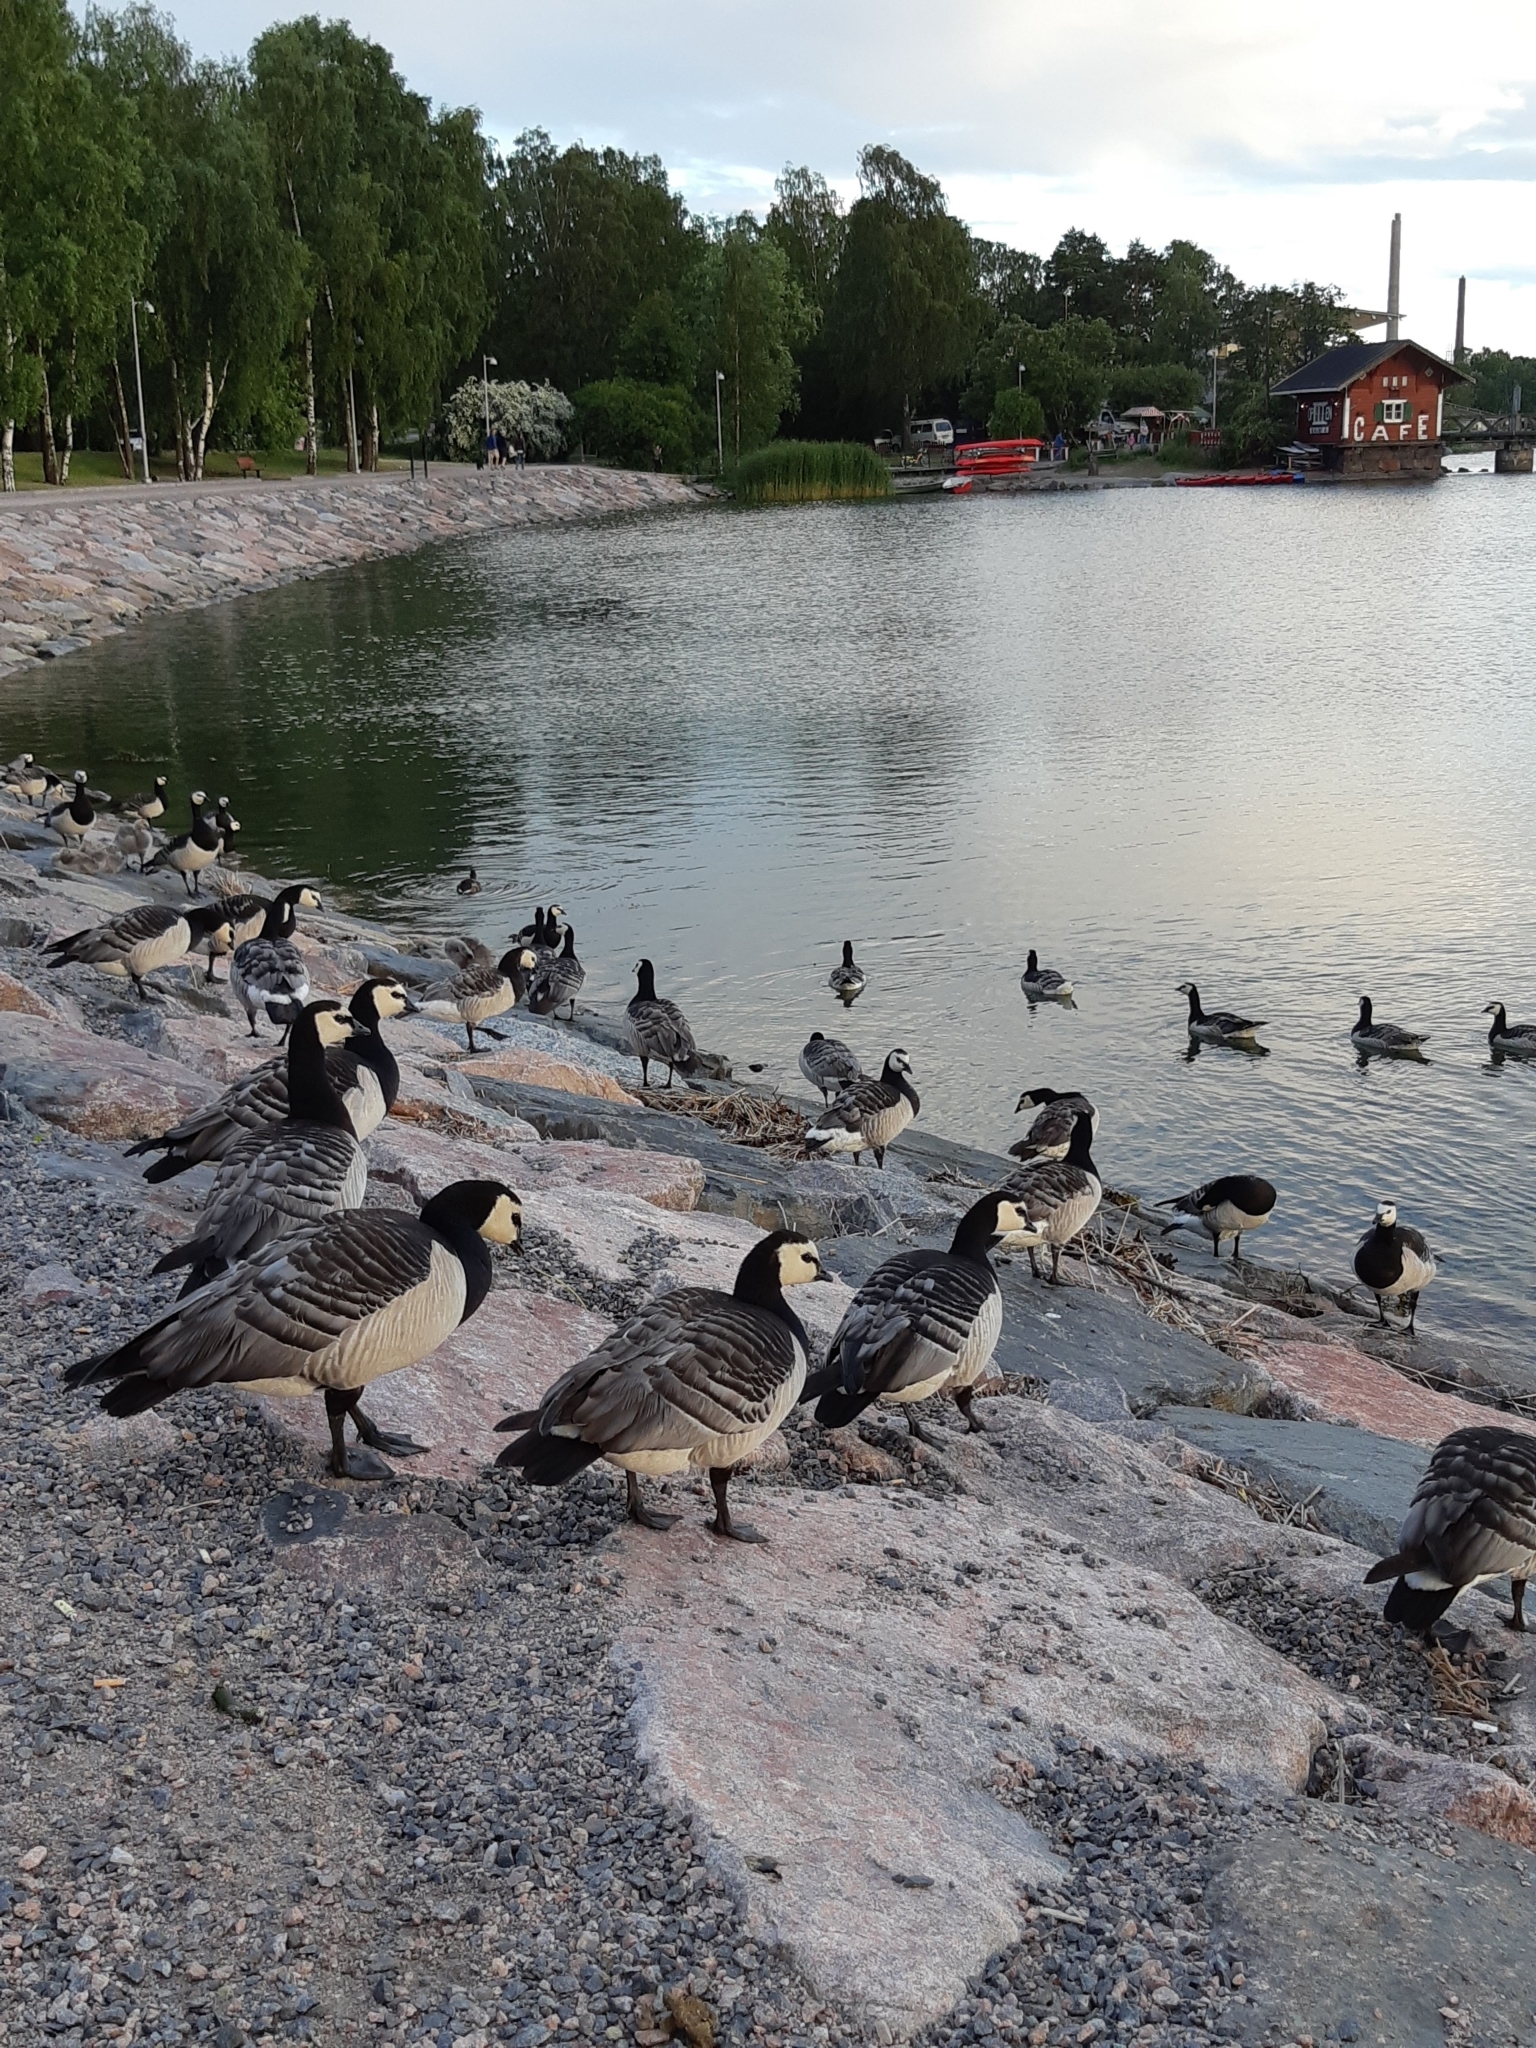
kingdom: Animalia
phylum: Chordata
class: Aves
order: Anseriformes
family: Anatidae
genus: Branta
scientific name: Branta leucopsis
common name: Barnacle goose
